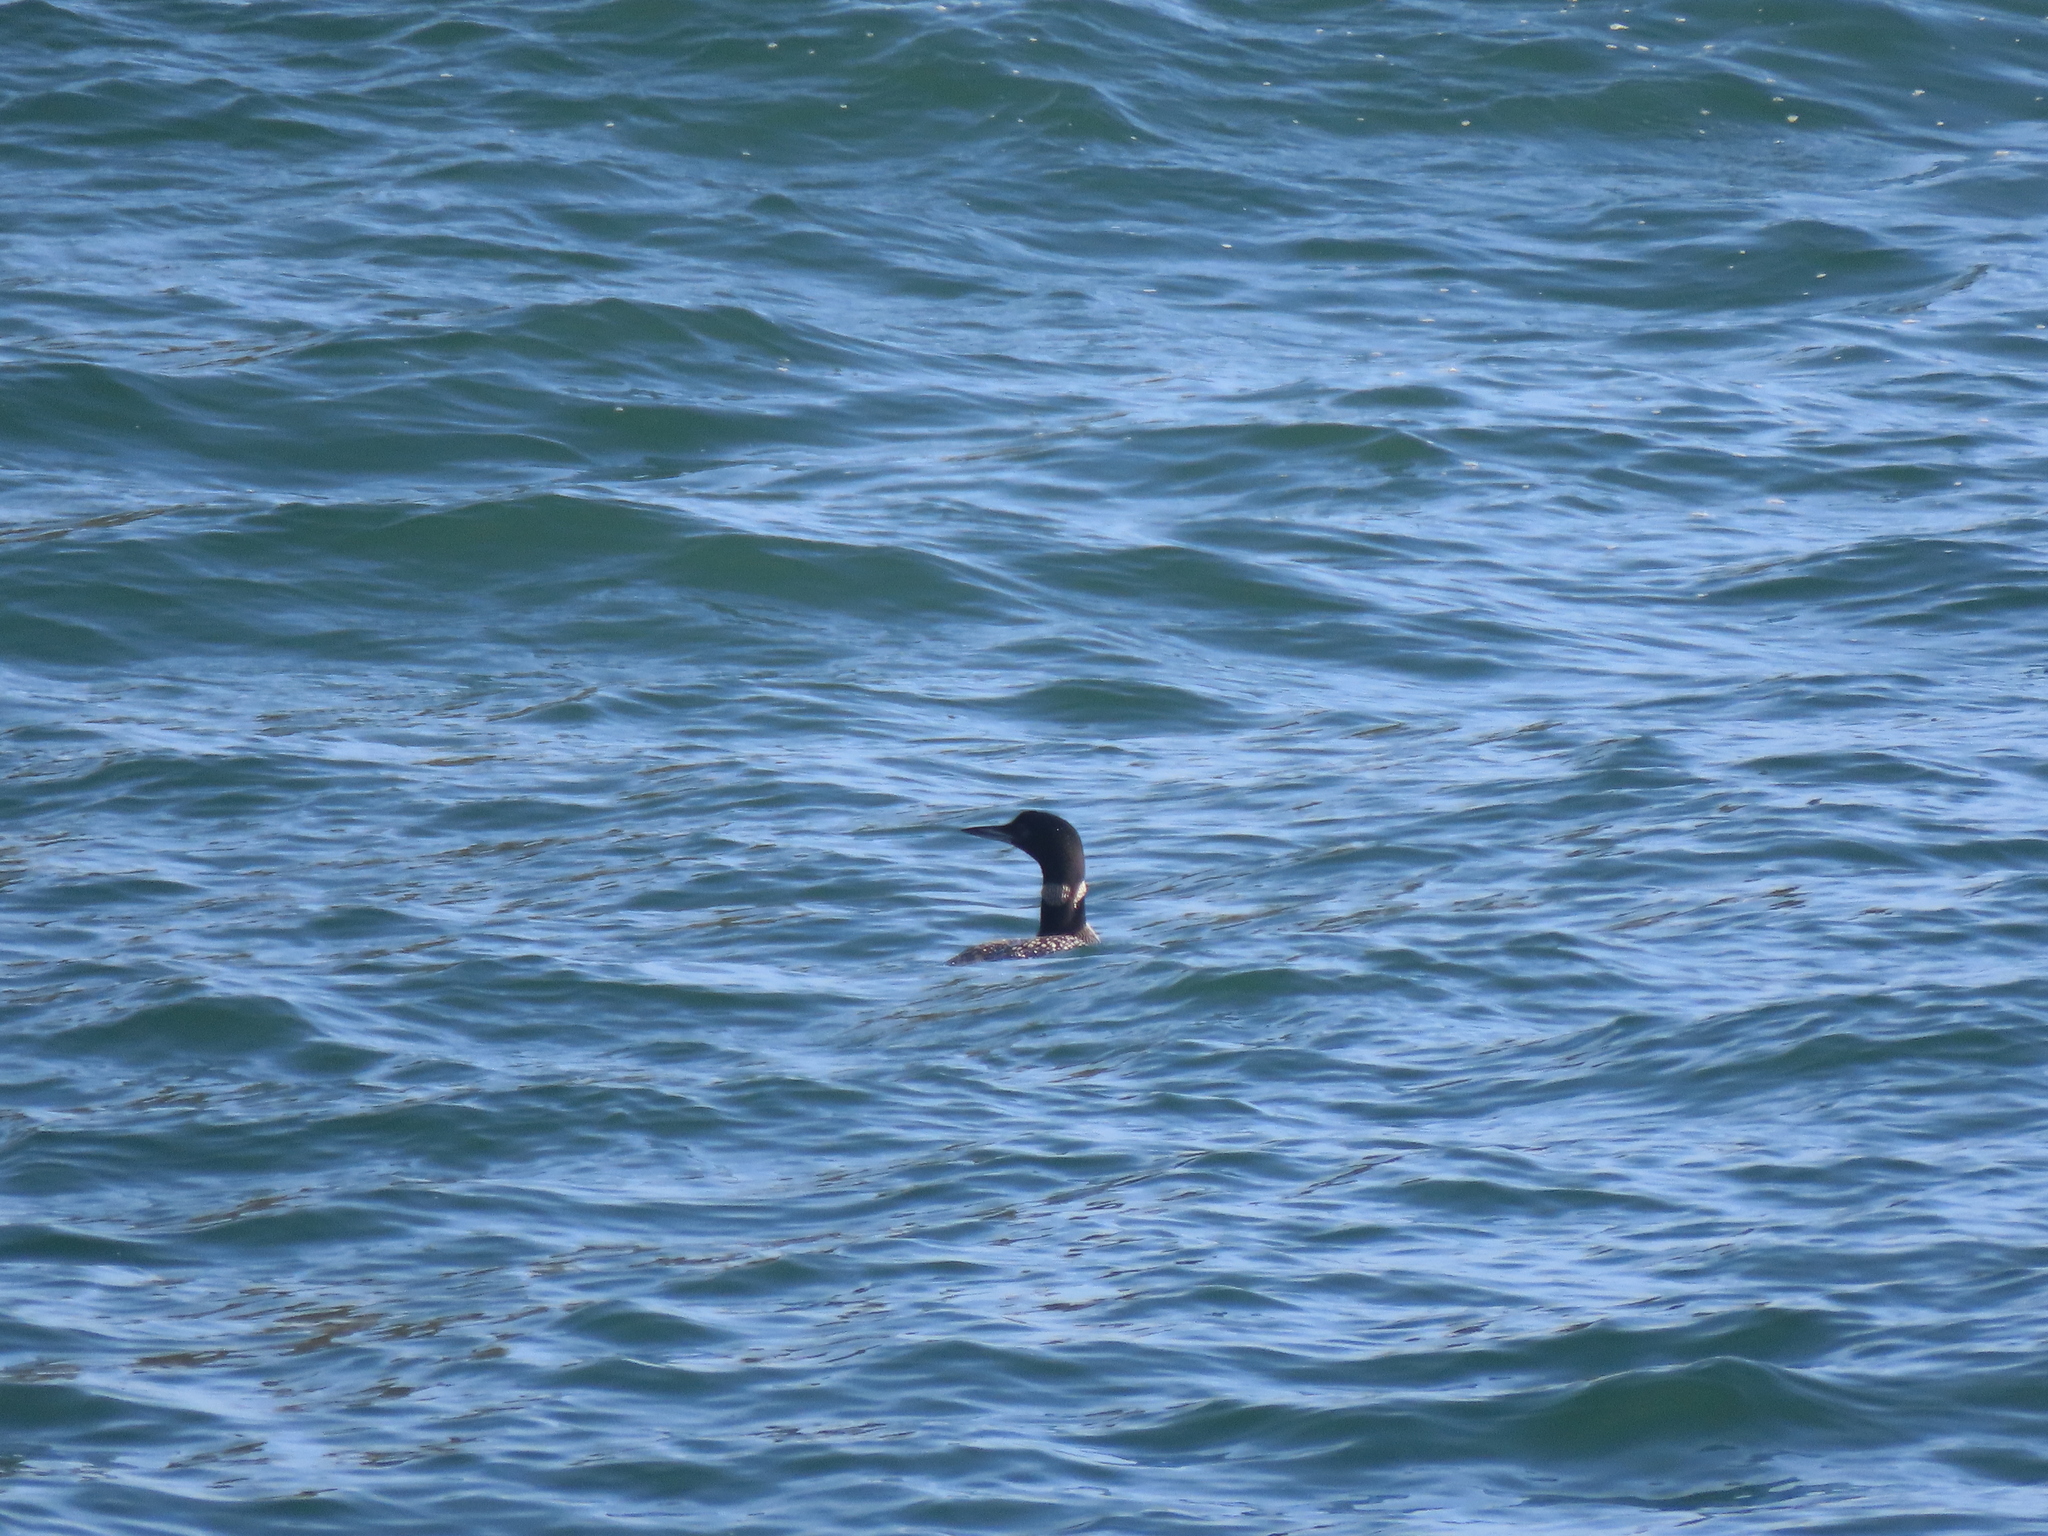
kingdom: Animalia
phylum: Chordata
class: Aves
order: Gaviiformes
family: Gaviidae
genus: Gavia
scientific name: Gavia immer
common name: Common loon
